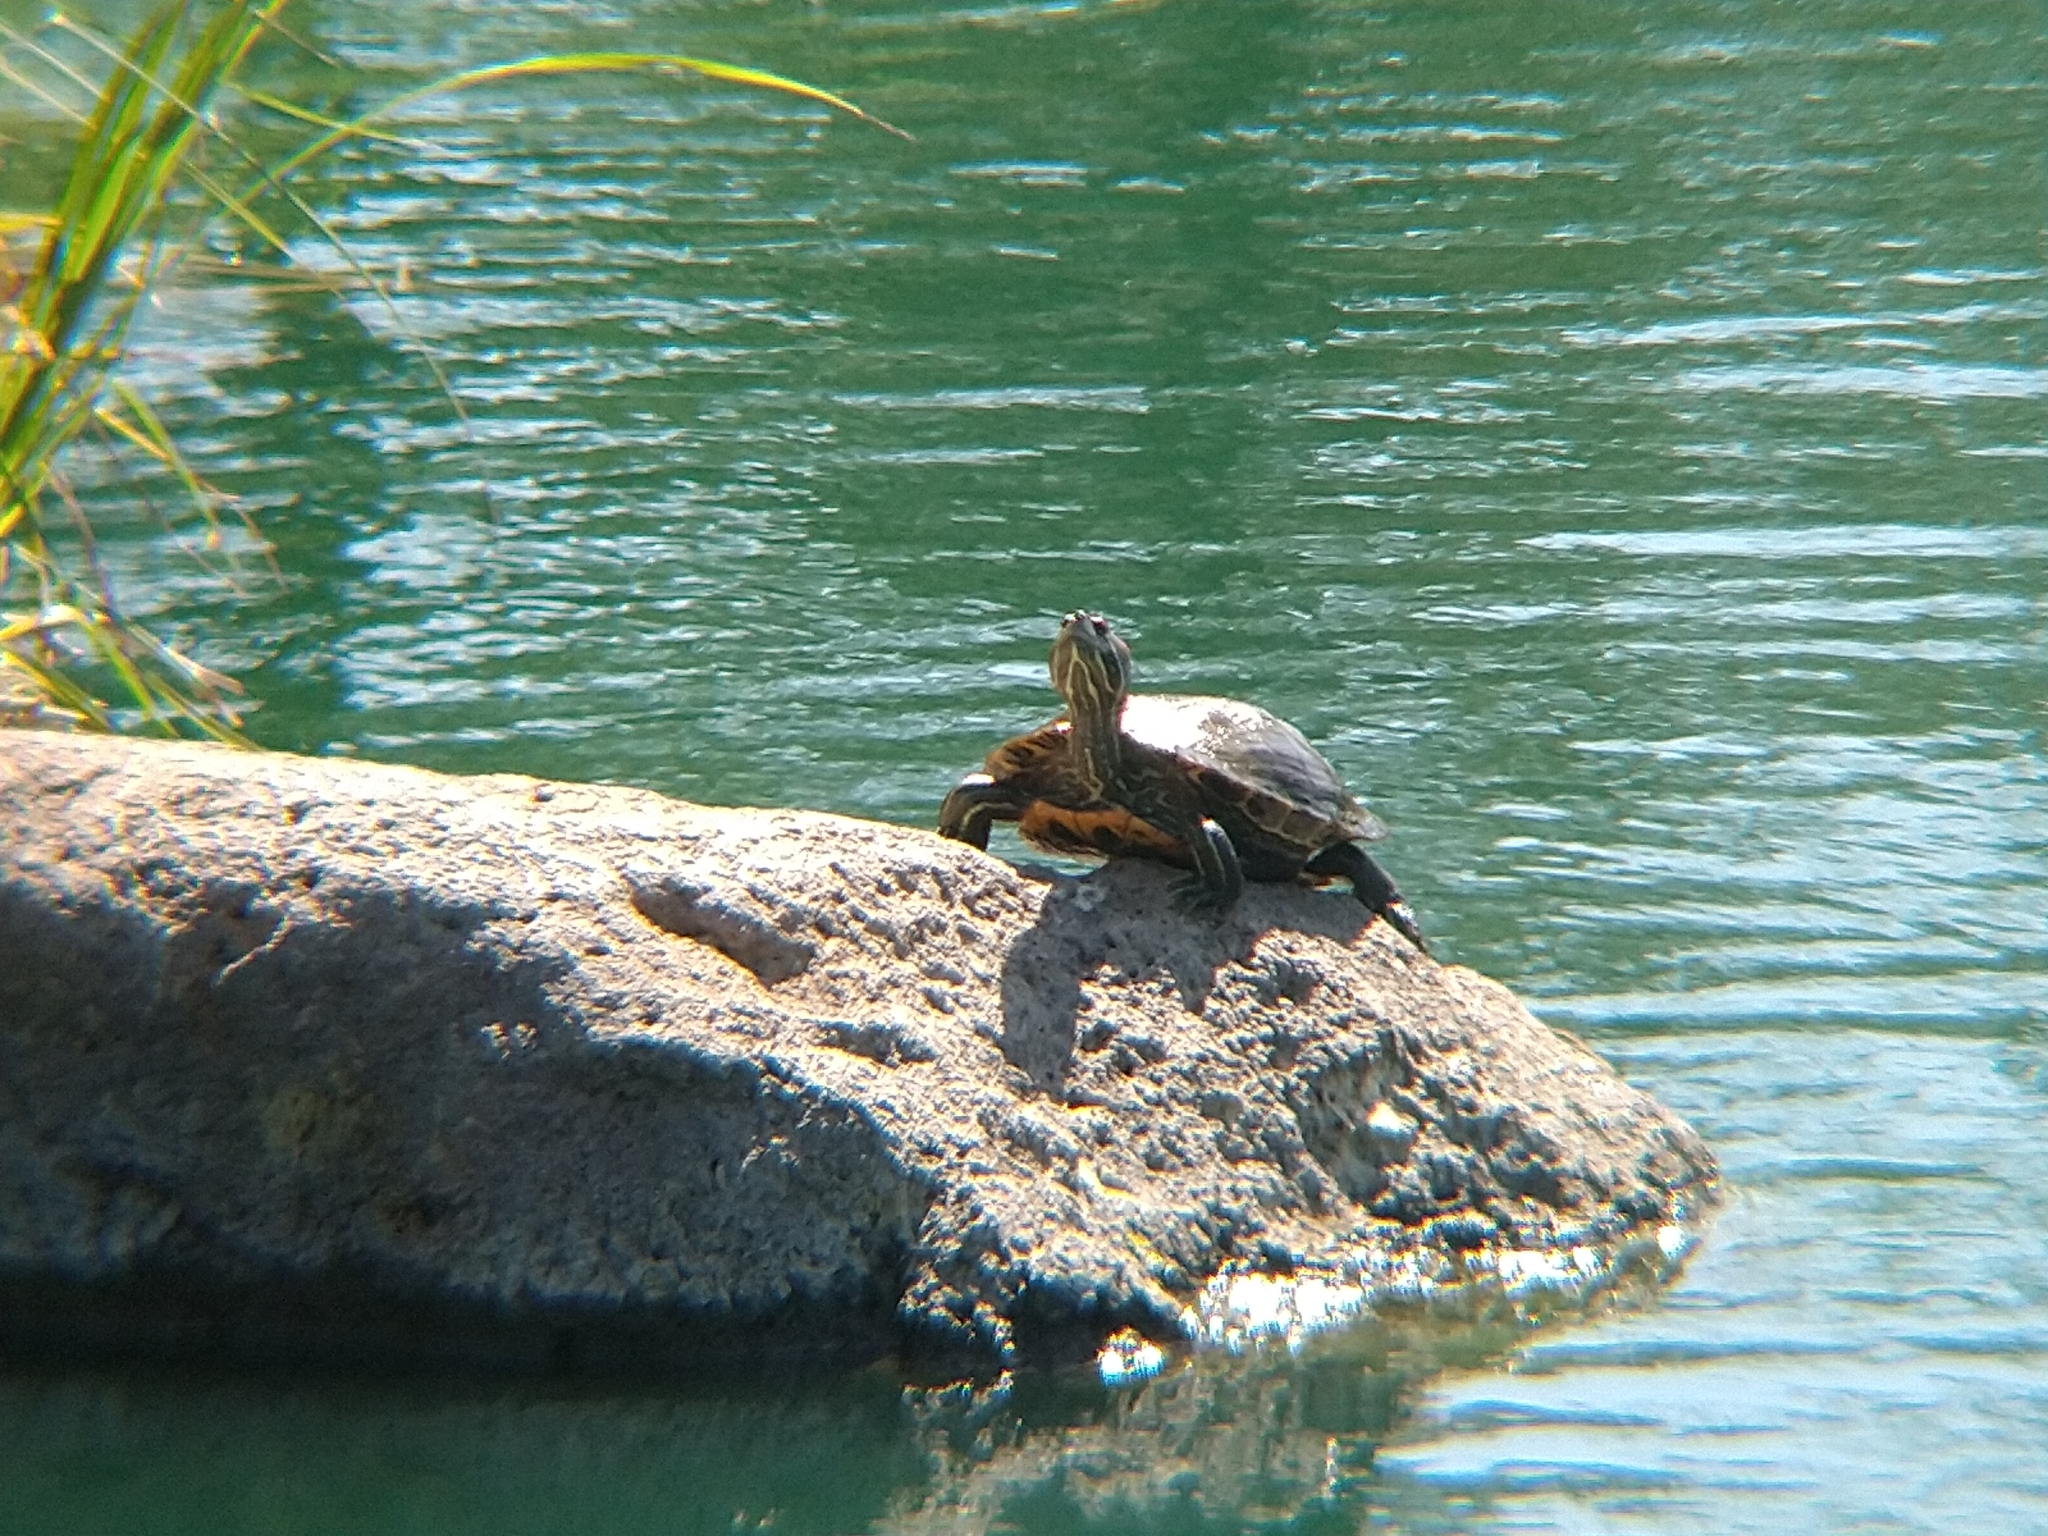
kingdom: Animalia
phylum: Chordata
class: Testudines
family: Emydidae
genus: Trachemys
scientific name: Trachemys scripta
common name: Slider
